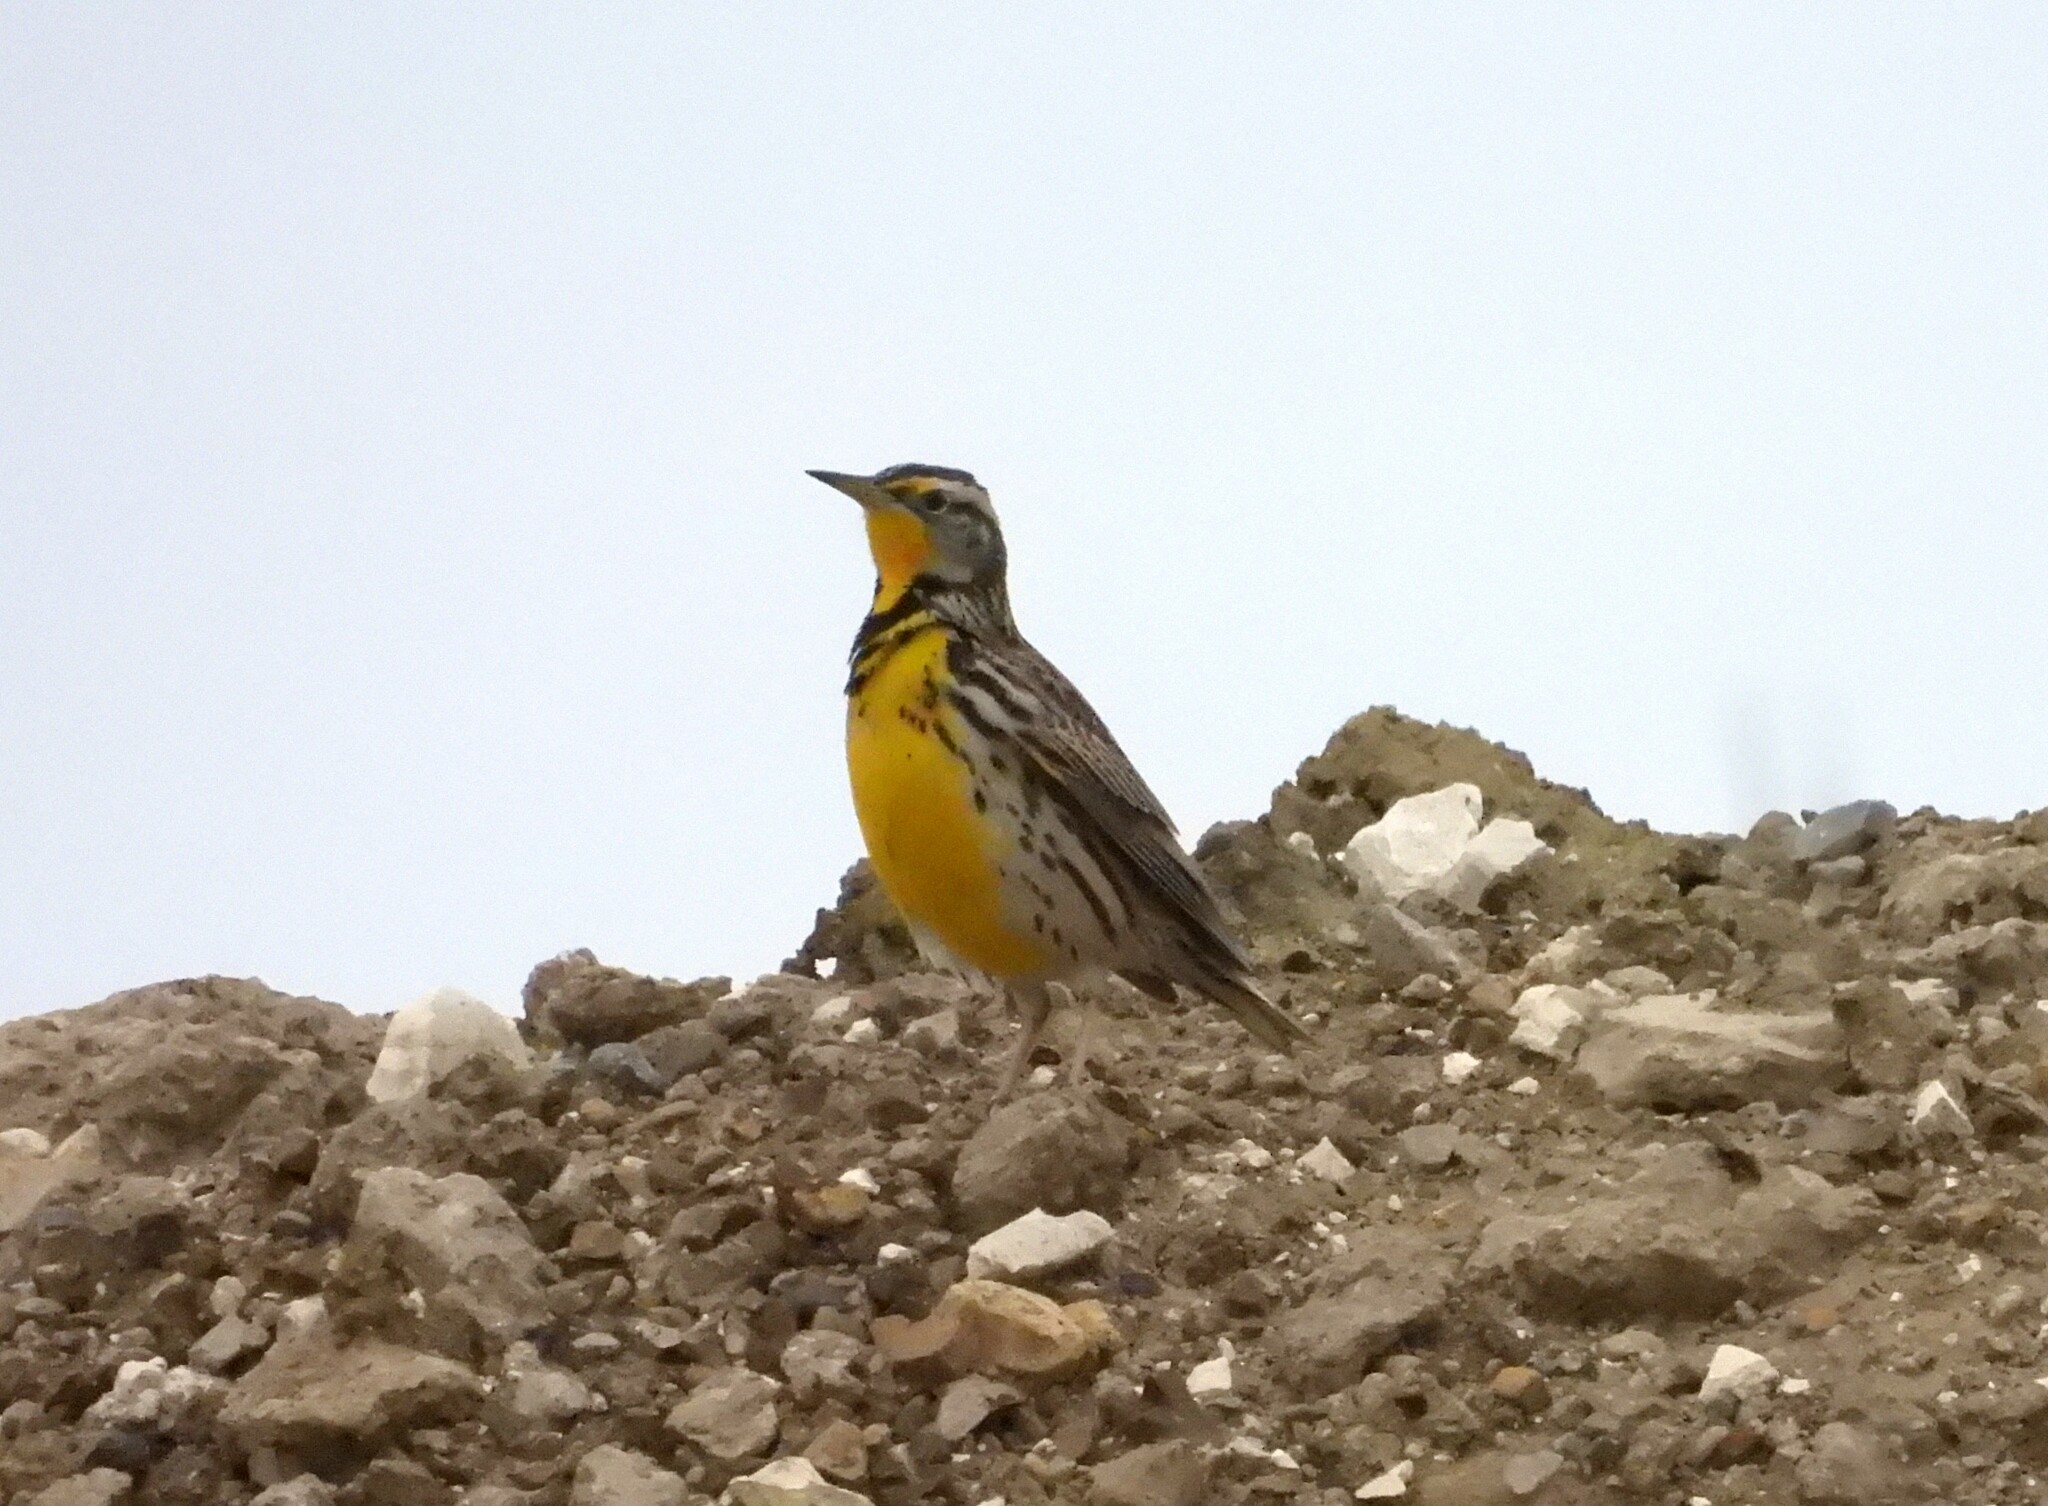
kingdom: Animalia
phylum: Chordata
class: Aves
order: Passeriformes
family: Icteridae
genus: Sturnella
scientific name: Sturnella neglecta
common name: Western meadowlark
